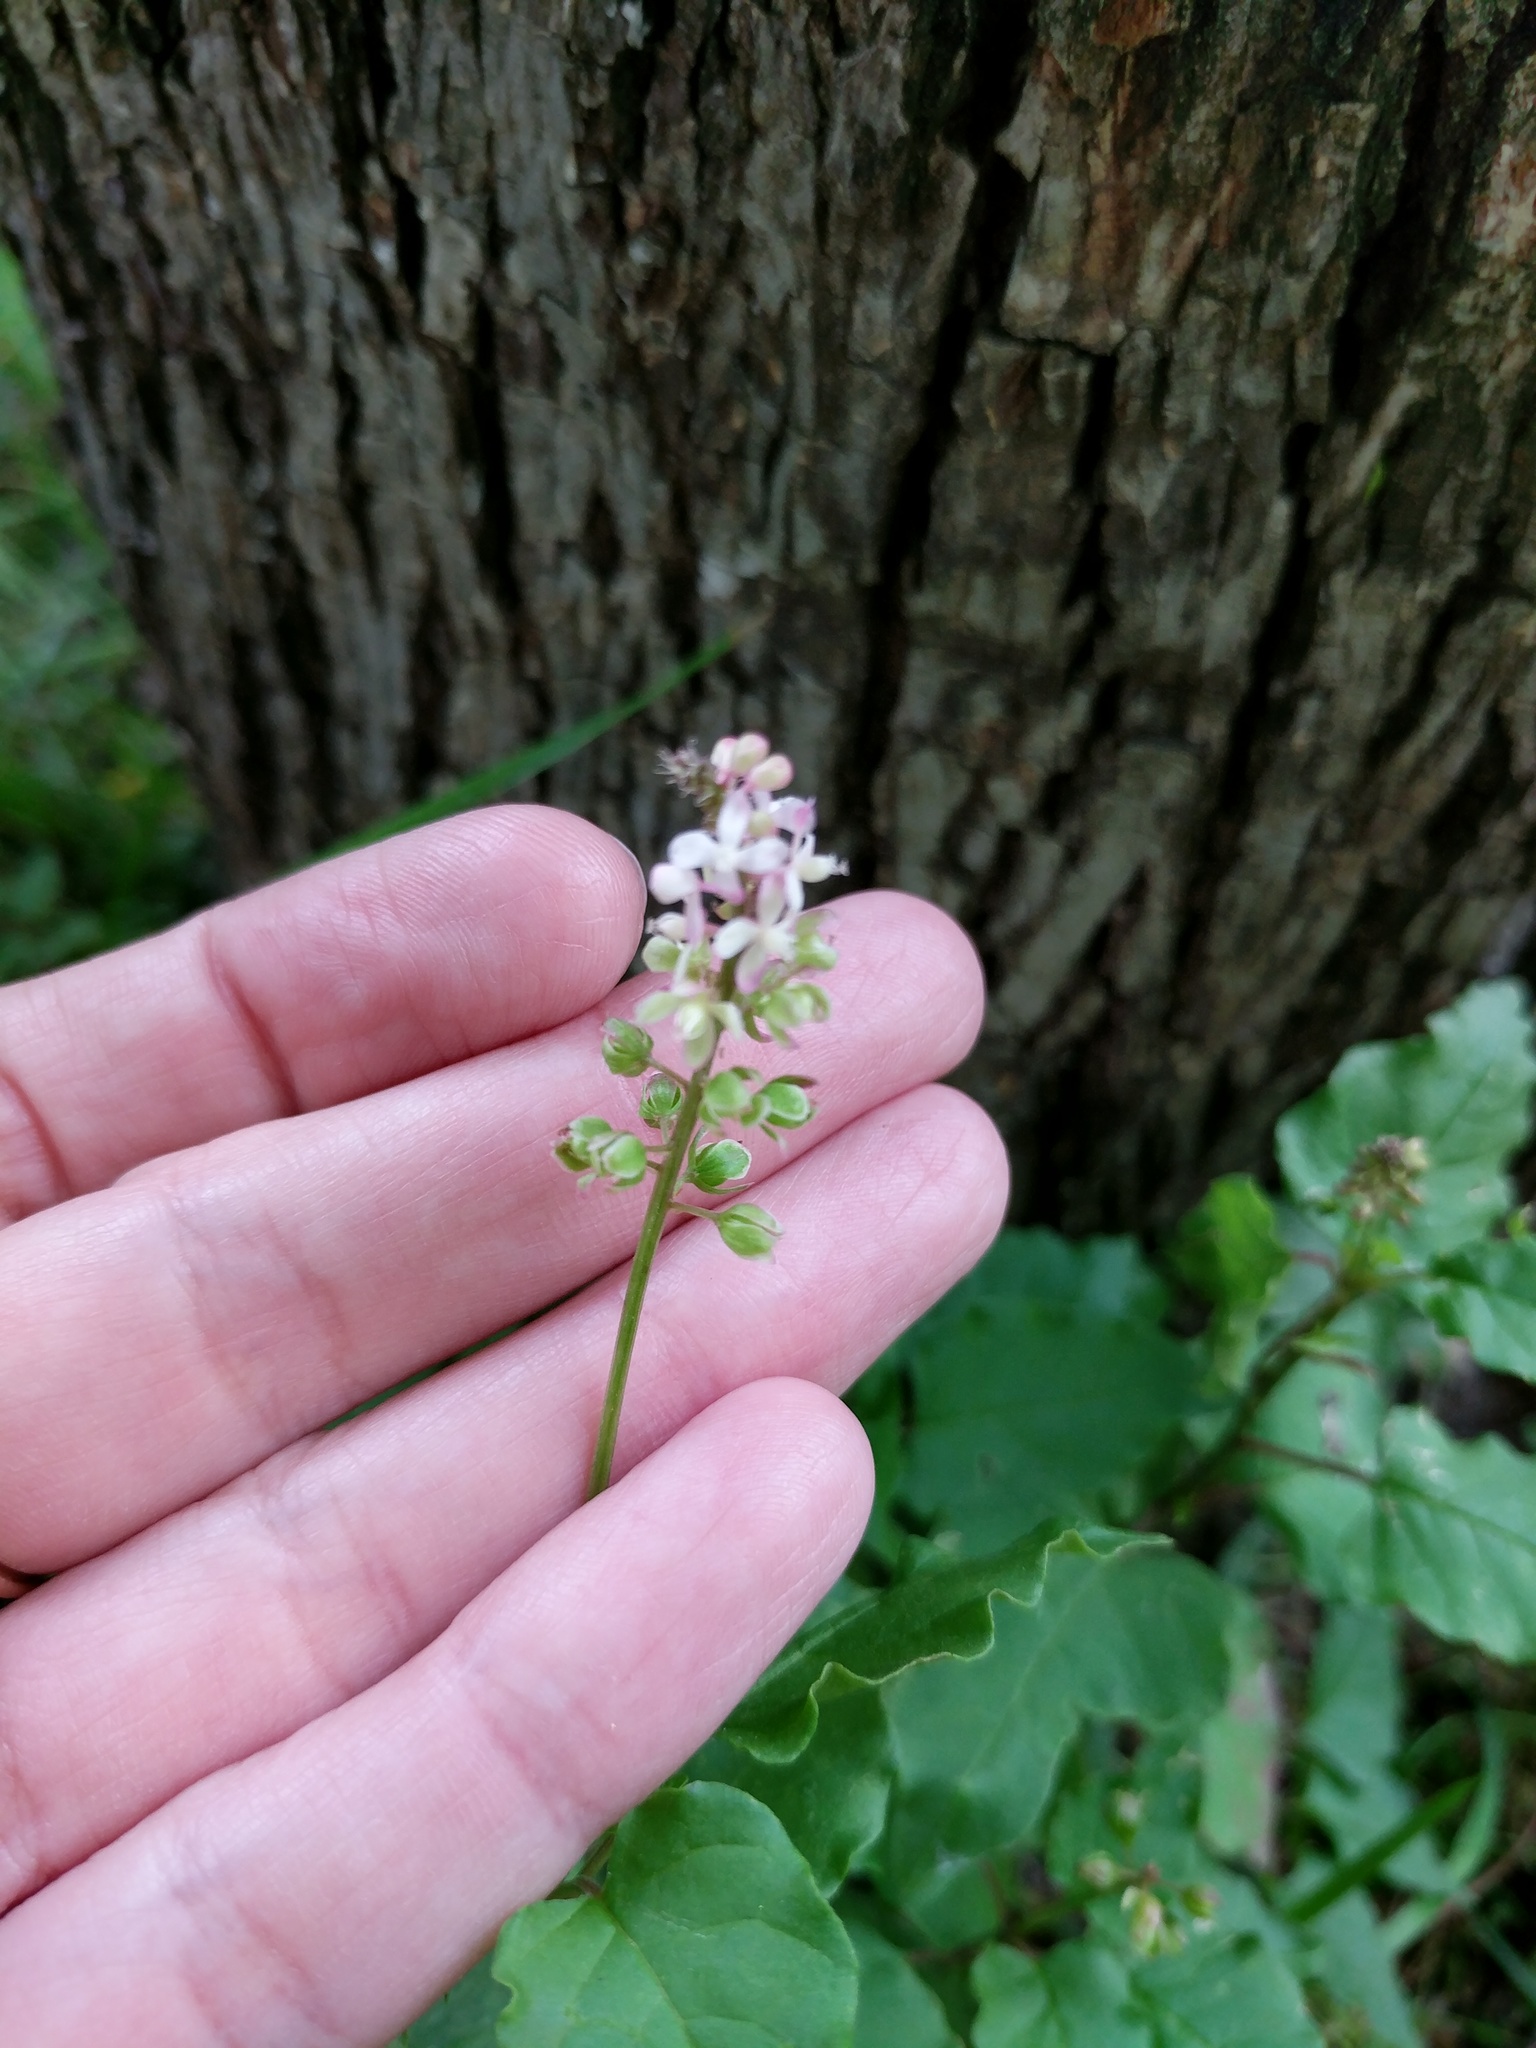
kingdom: Plantae
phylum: Tracheophyta
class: Magnoliopsida
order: Caryophyllales
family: Phytolaccaceae
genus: Rivina
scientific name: Rivina humilis
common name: Rougeplant
